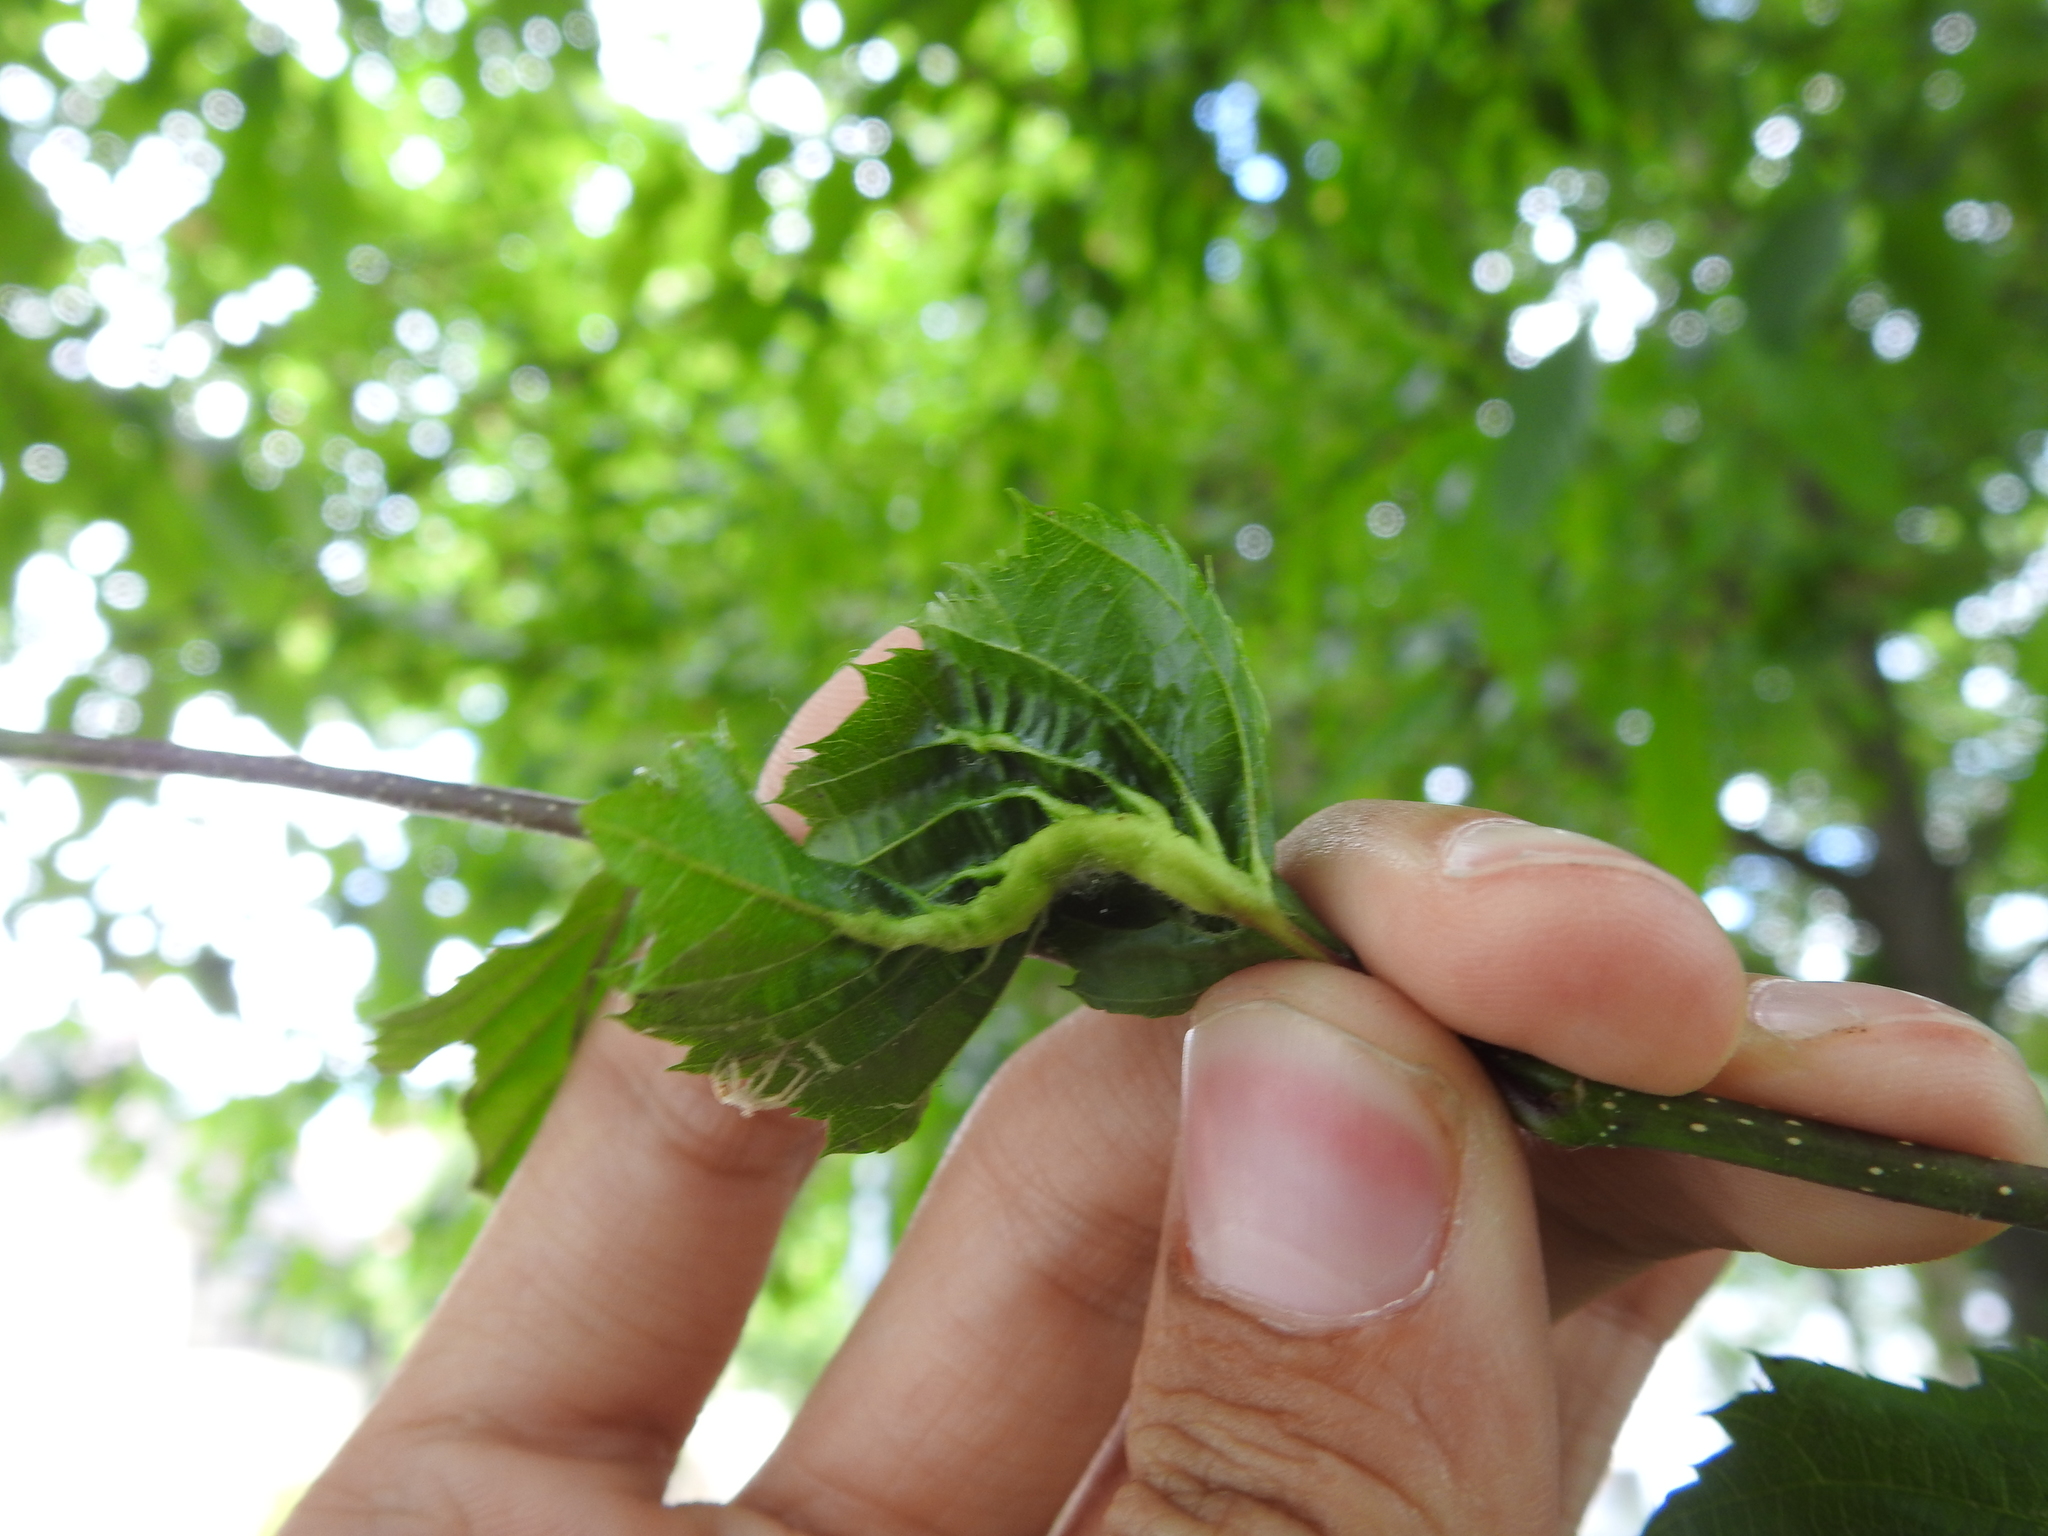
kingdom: Animalia
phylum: Arthropoda
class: Insecta
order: Diptera
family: Cecidomyiidae
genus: Zygiobia
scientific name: Zygiobia carpini
